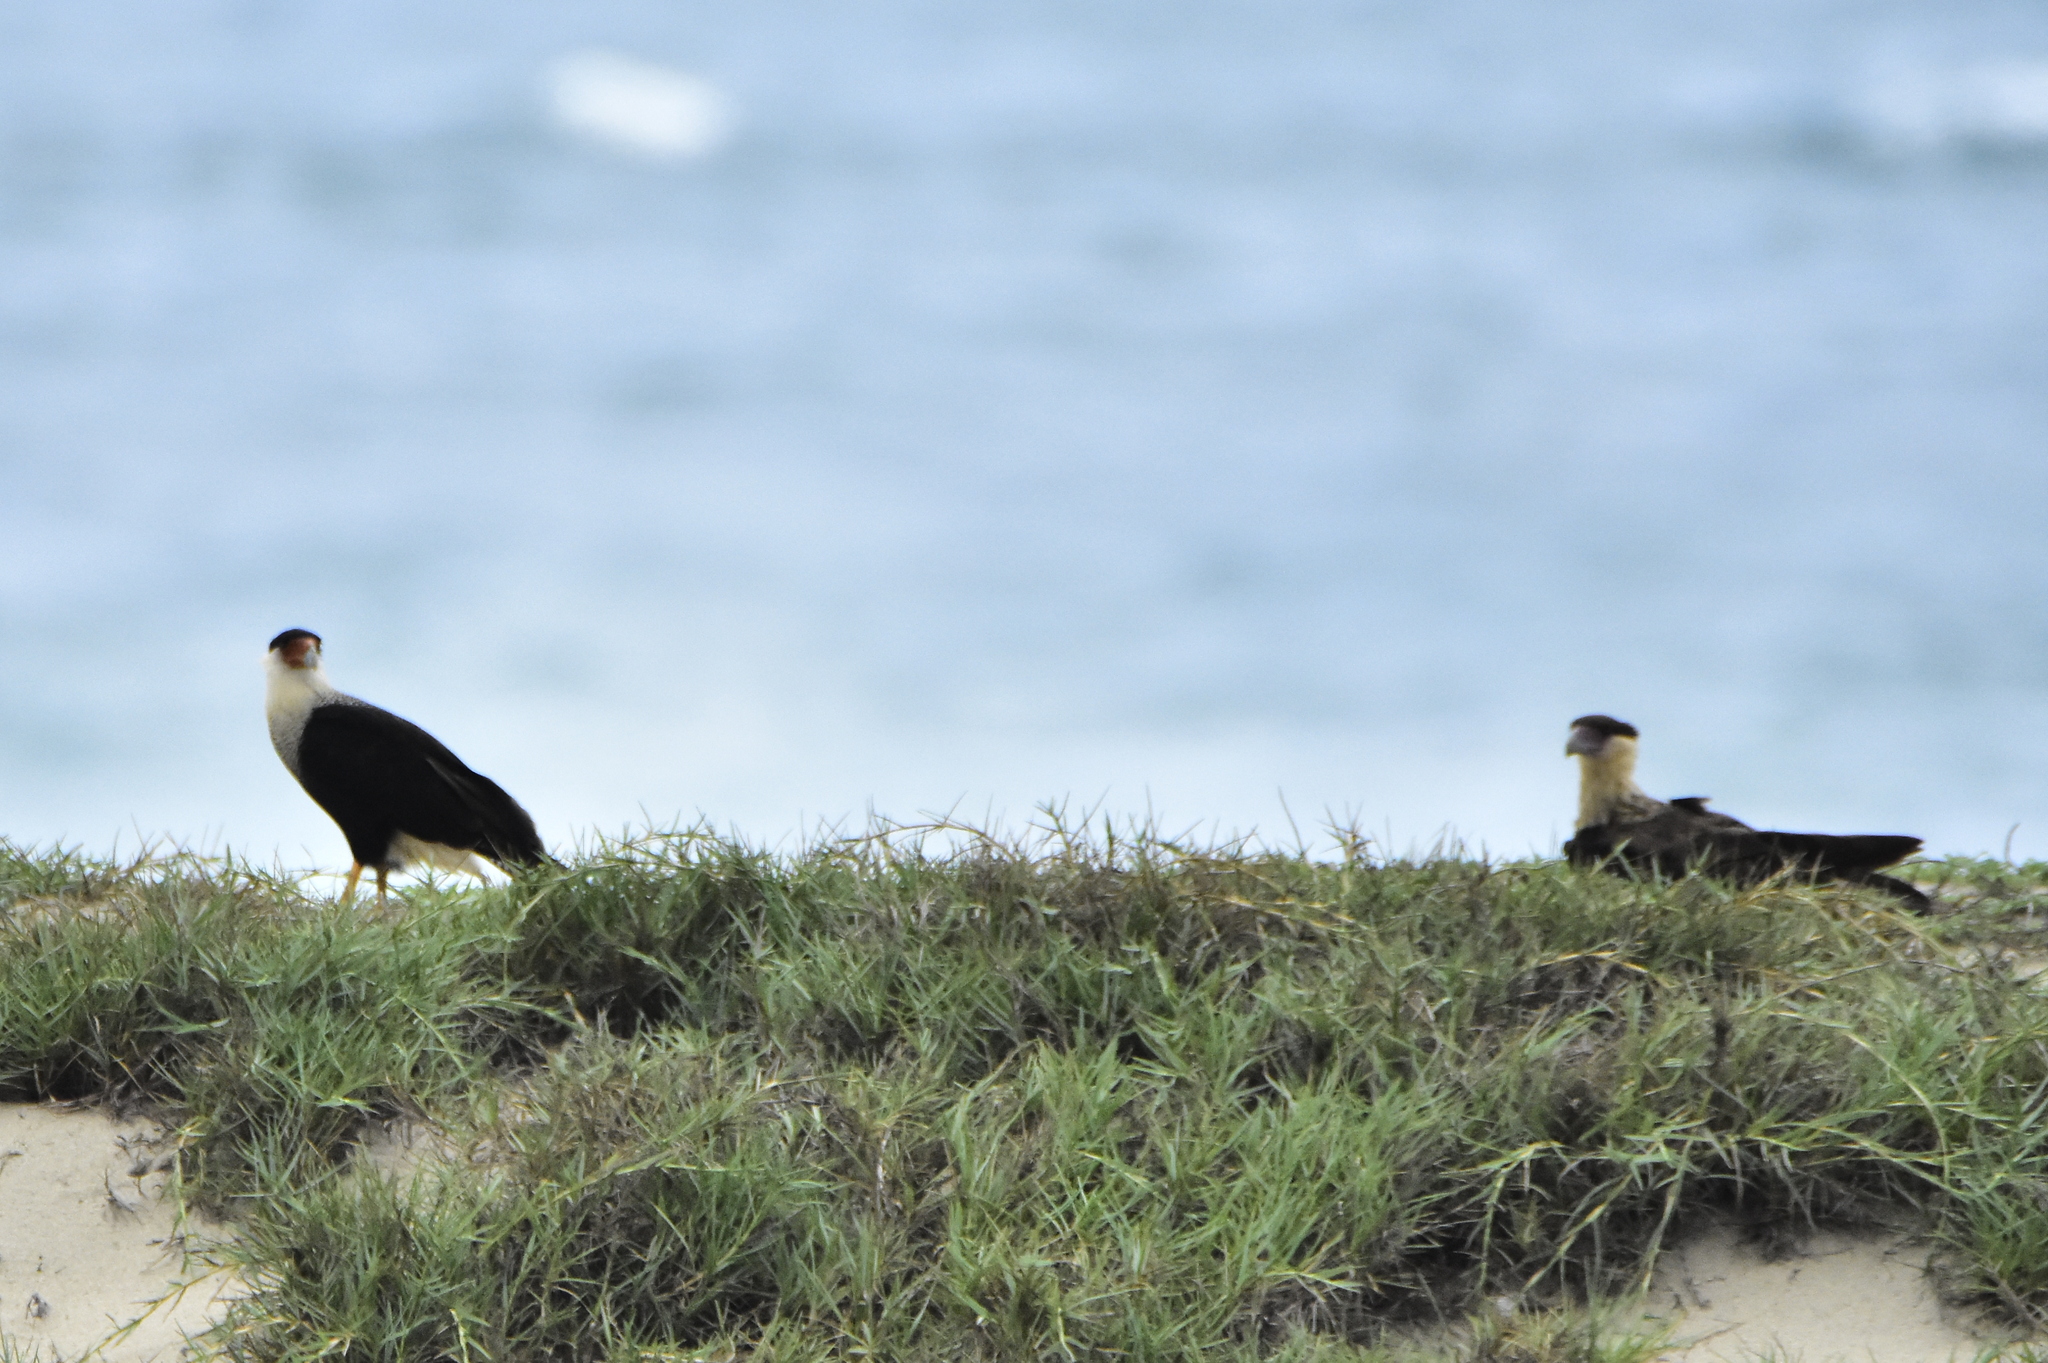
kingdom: Animalia
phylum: Chordata
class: Aves
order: Falconiformes
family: Falconidae
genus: Caracara
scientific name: Caracara plancus
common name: Southern caracara
